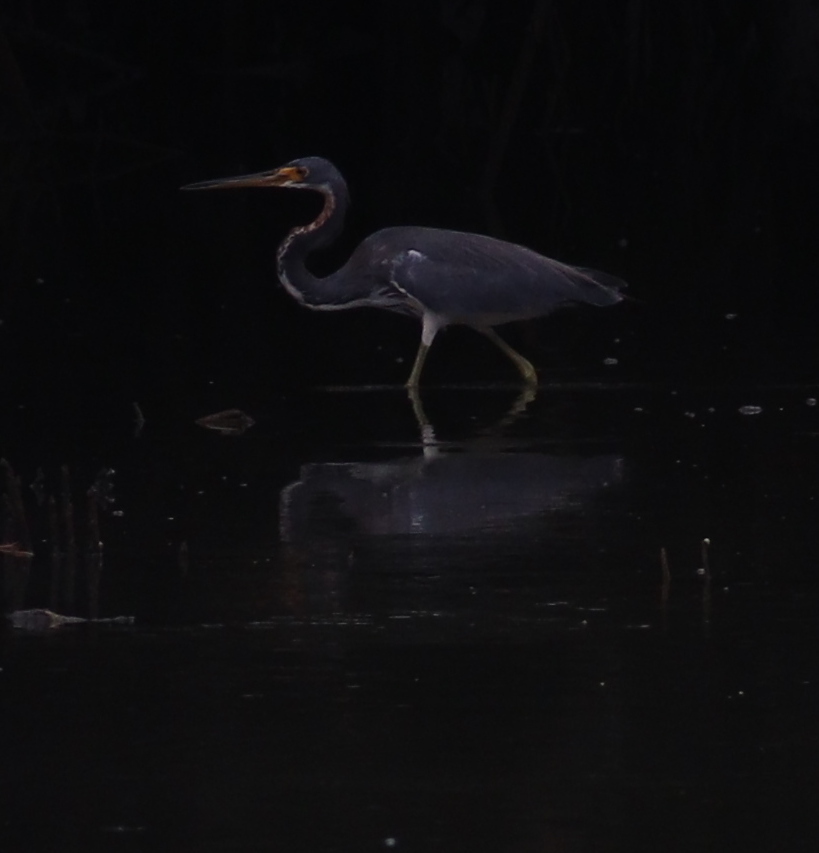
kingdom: Animalia
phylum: Chordata
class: Aves
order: Pelecaniformes
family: Ardeidae
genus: Egretta
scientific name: Egretta tricolor
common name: Tricolored heron
